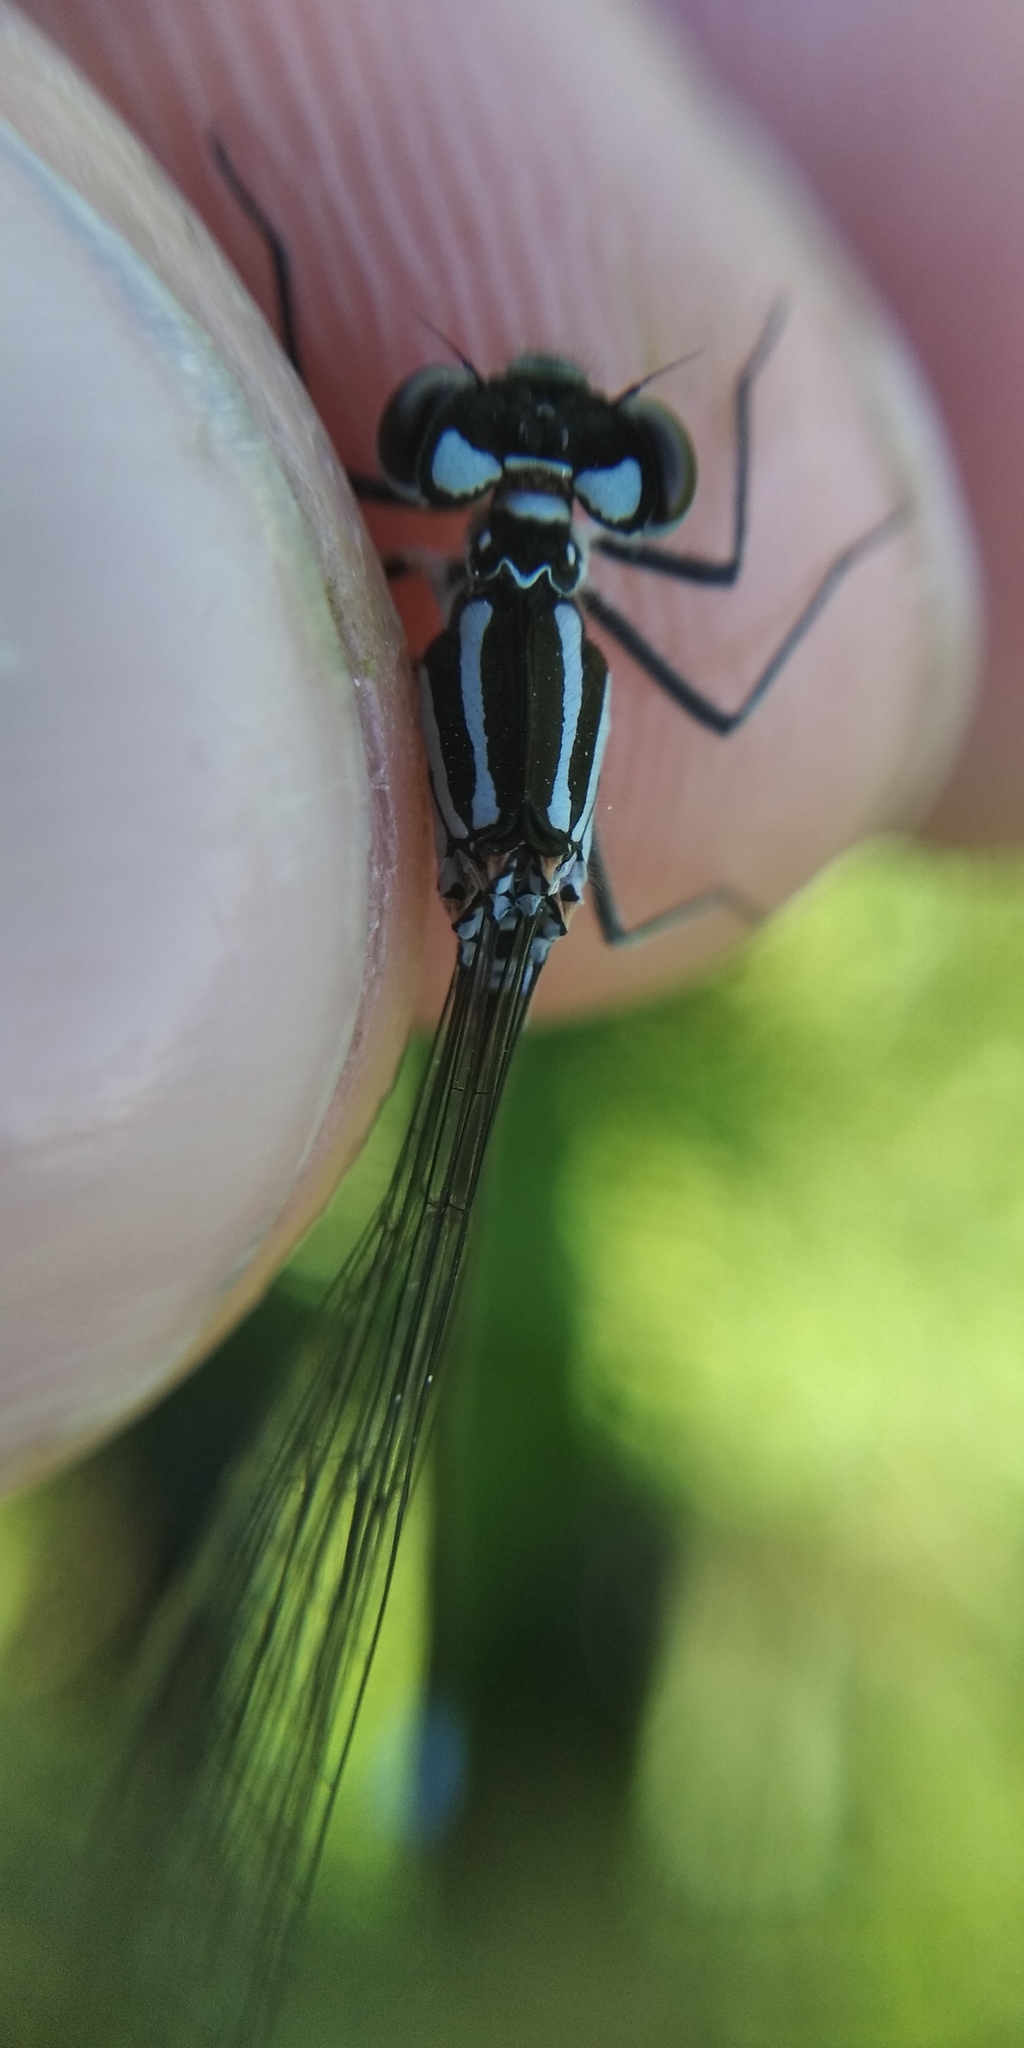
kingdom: Animalia
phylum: Arthropoda
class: Insecta
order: Odonata
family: Coenagrionidae
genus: Coenagrion
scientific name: Coenagrion pulchellum
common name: Variable bluet
